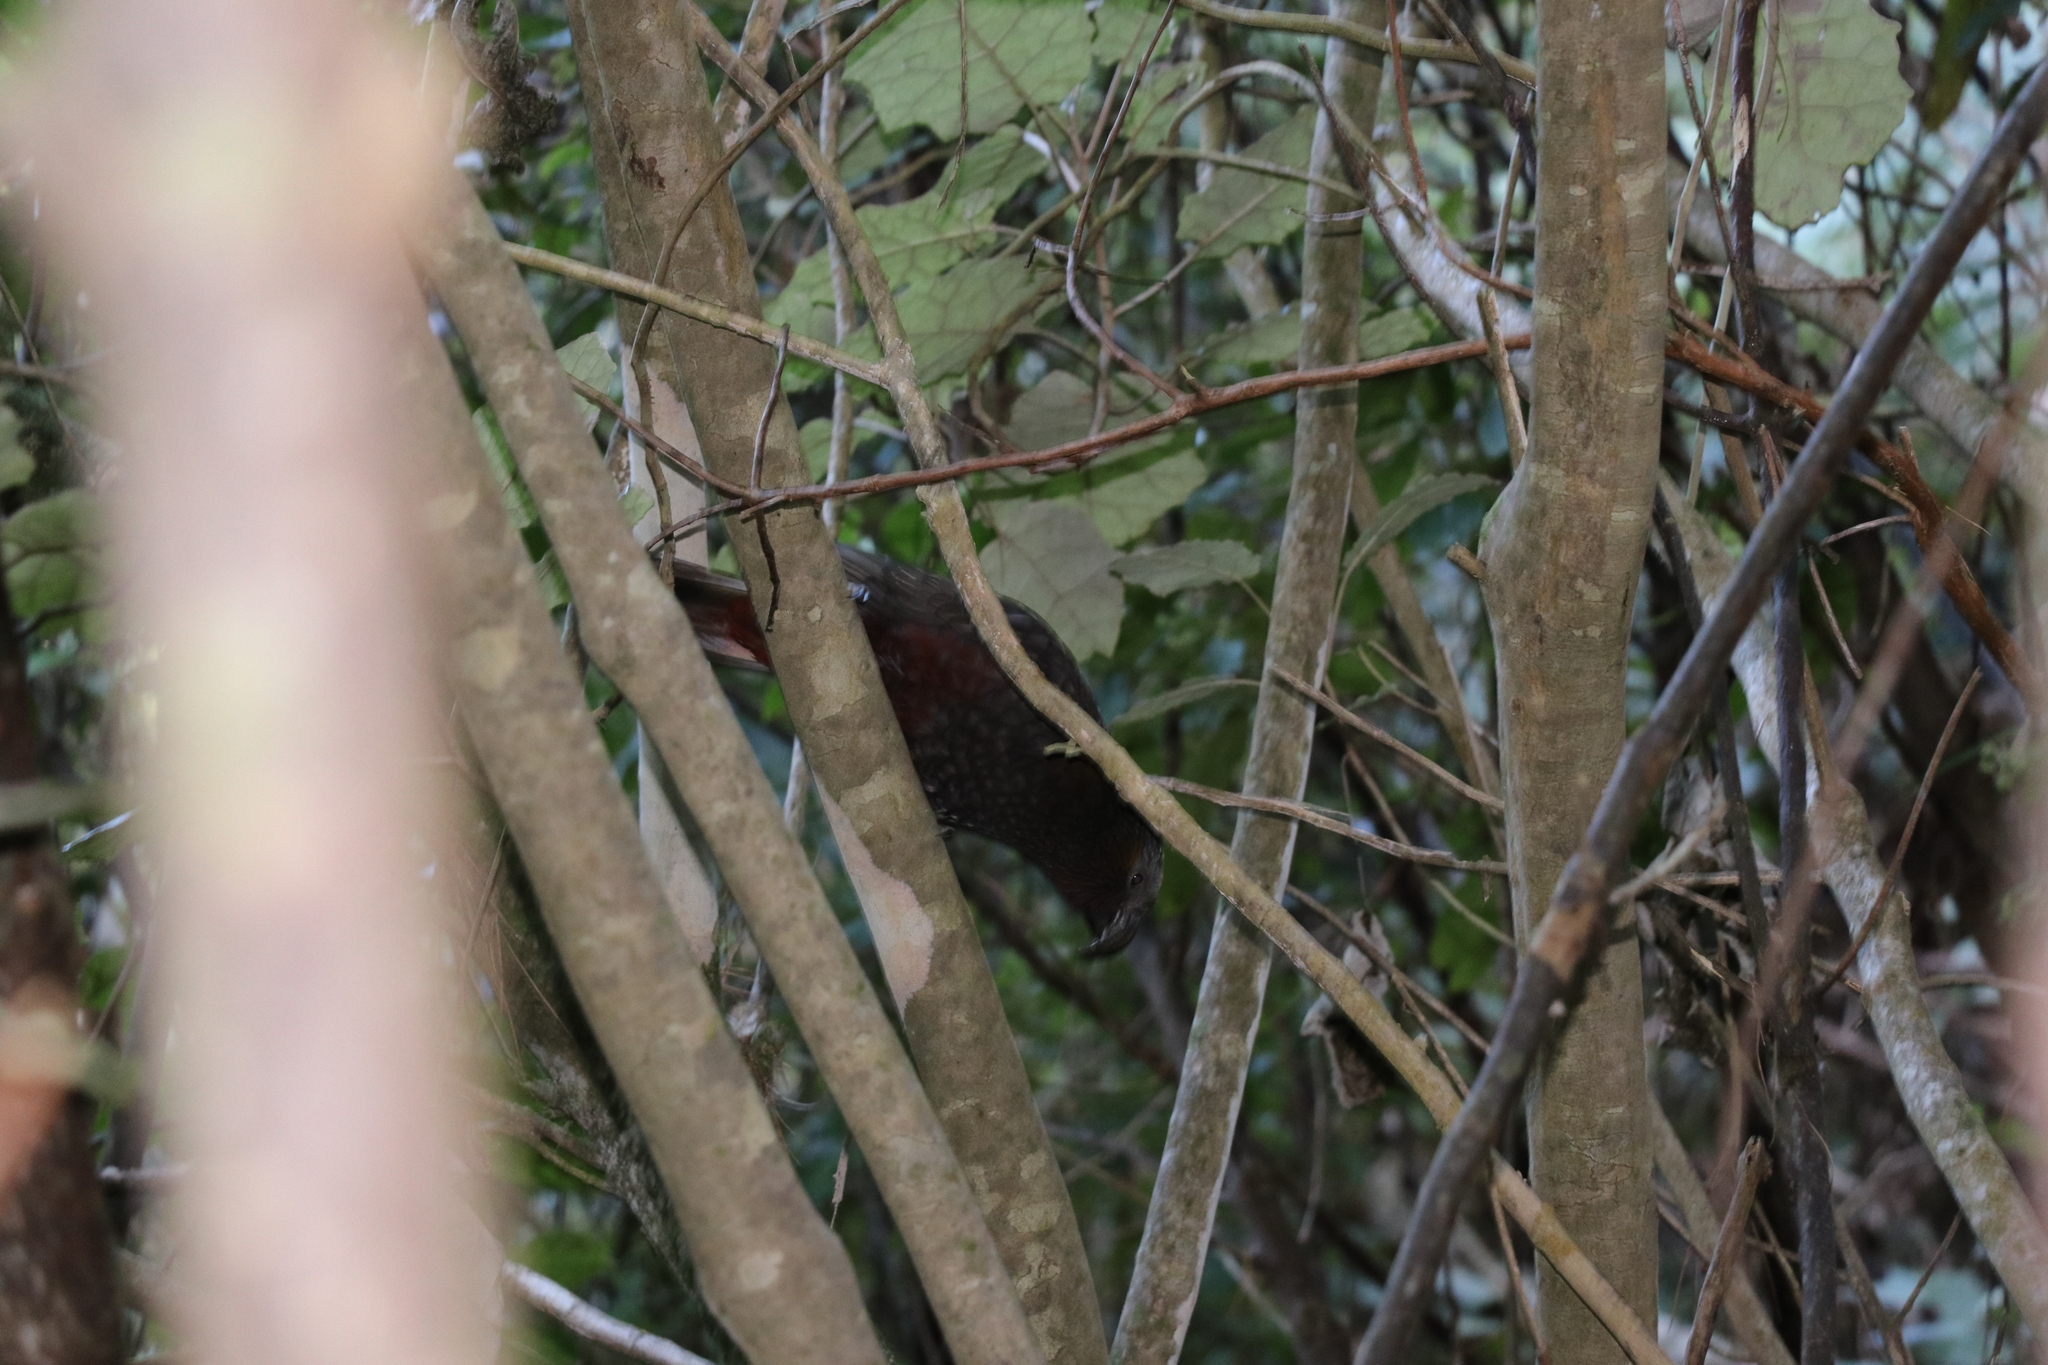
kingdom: Animalia
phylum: Chordata
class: Aves
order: Psittaciformes
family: Psittacidae
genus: Nestor
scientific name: Nestor meridionalis
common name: New zealand kaka
